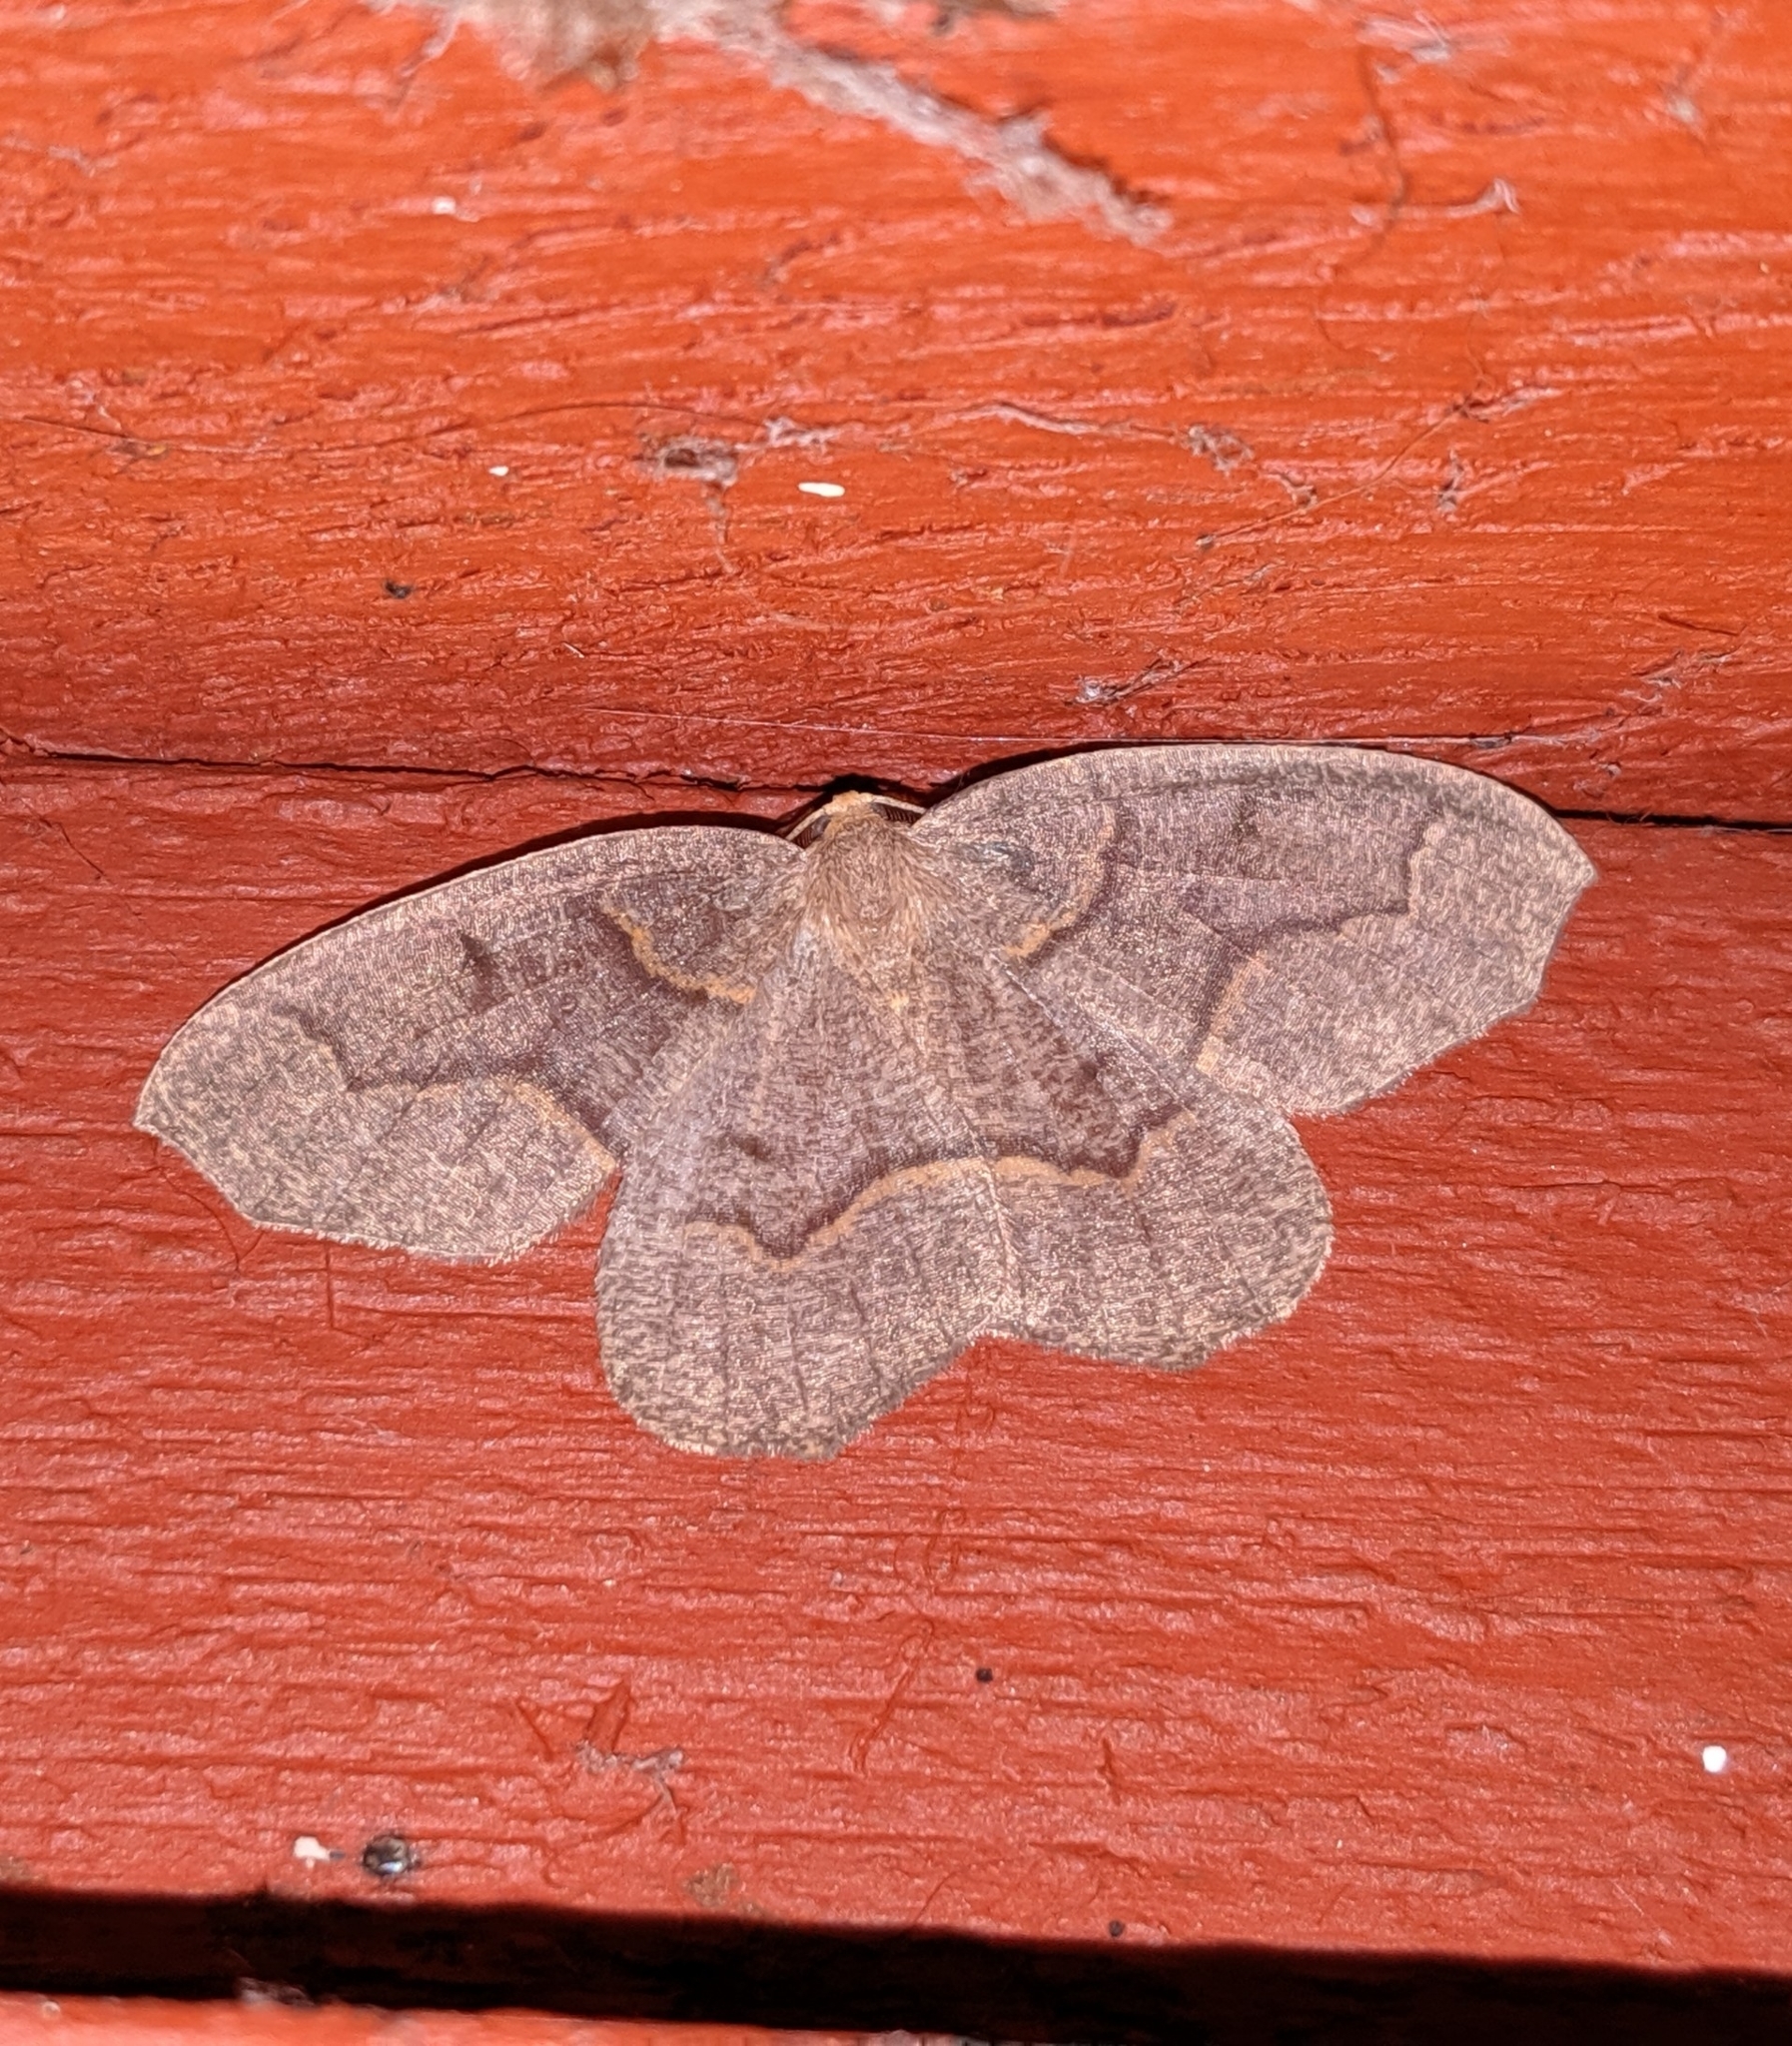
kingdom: Animalia
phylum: Arthropoda
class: Insecta
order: Lepidoptera
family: Geometridae
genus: Lambdina
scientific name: Lambdina fiscellaria
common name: Hemlock looper
